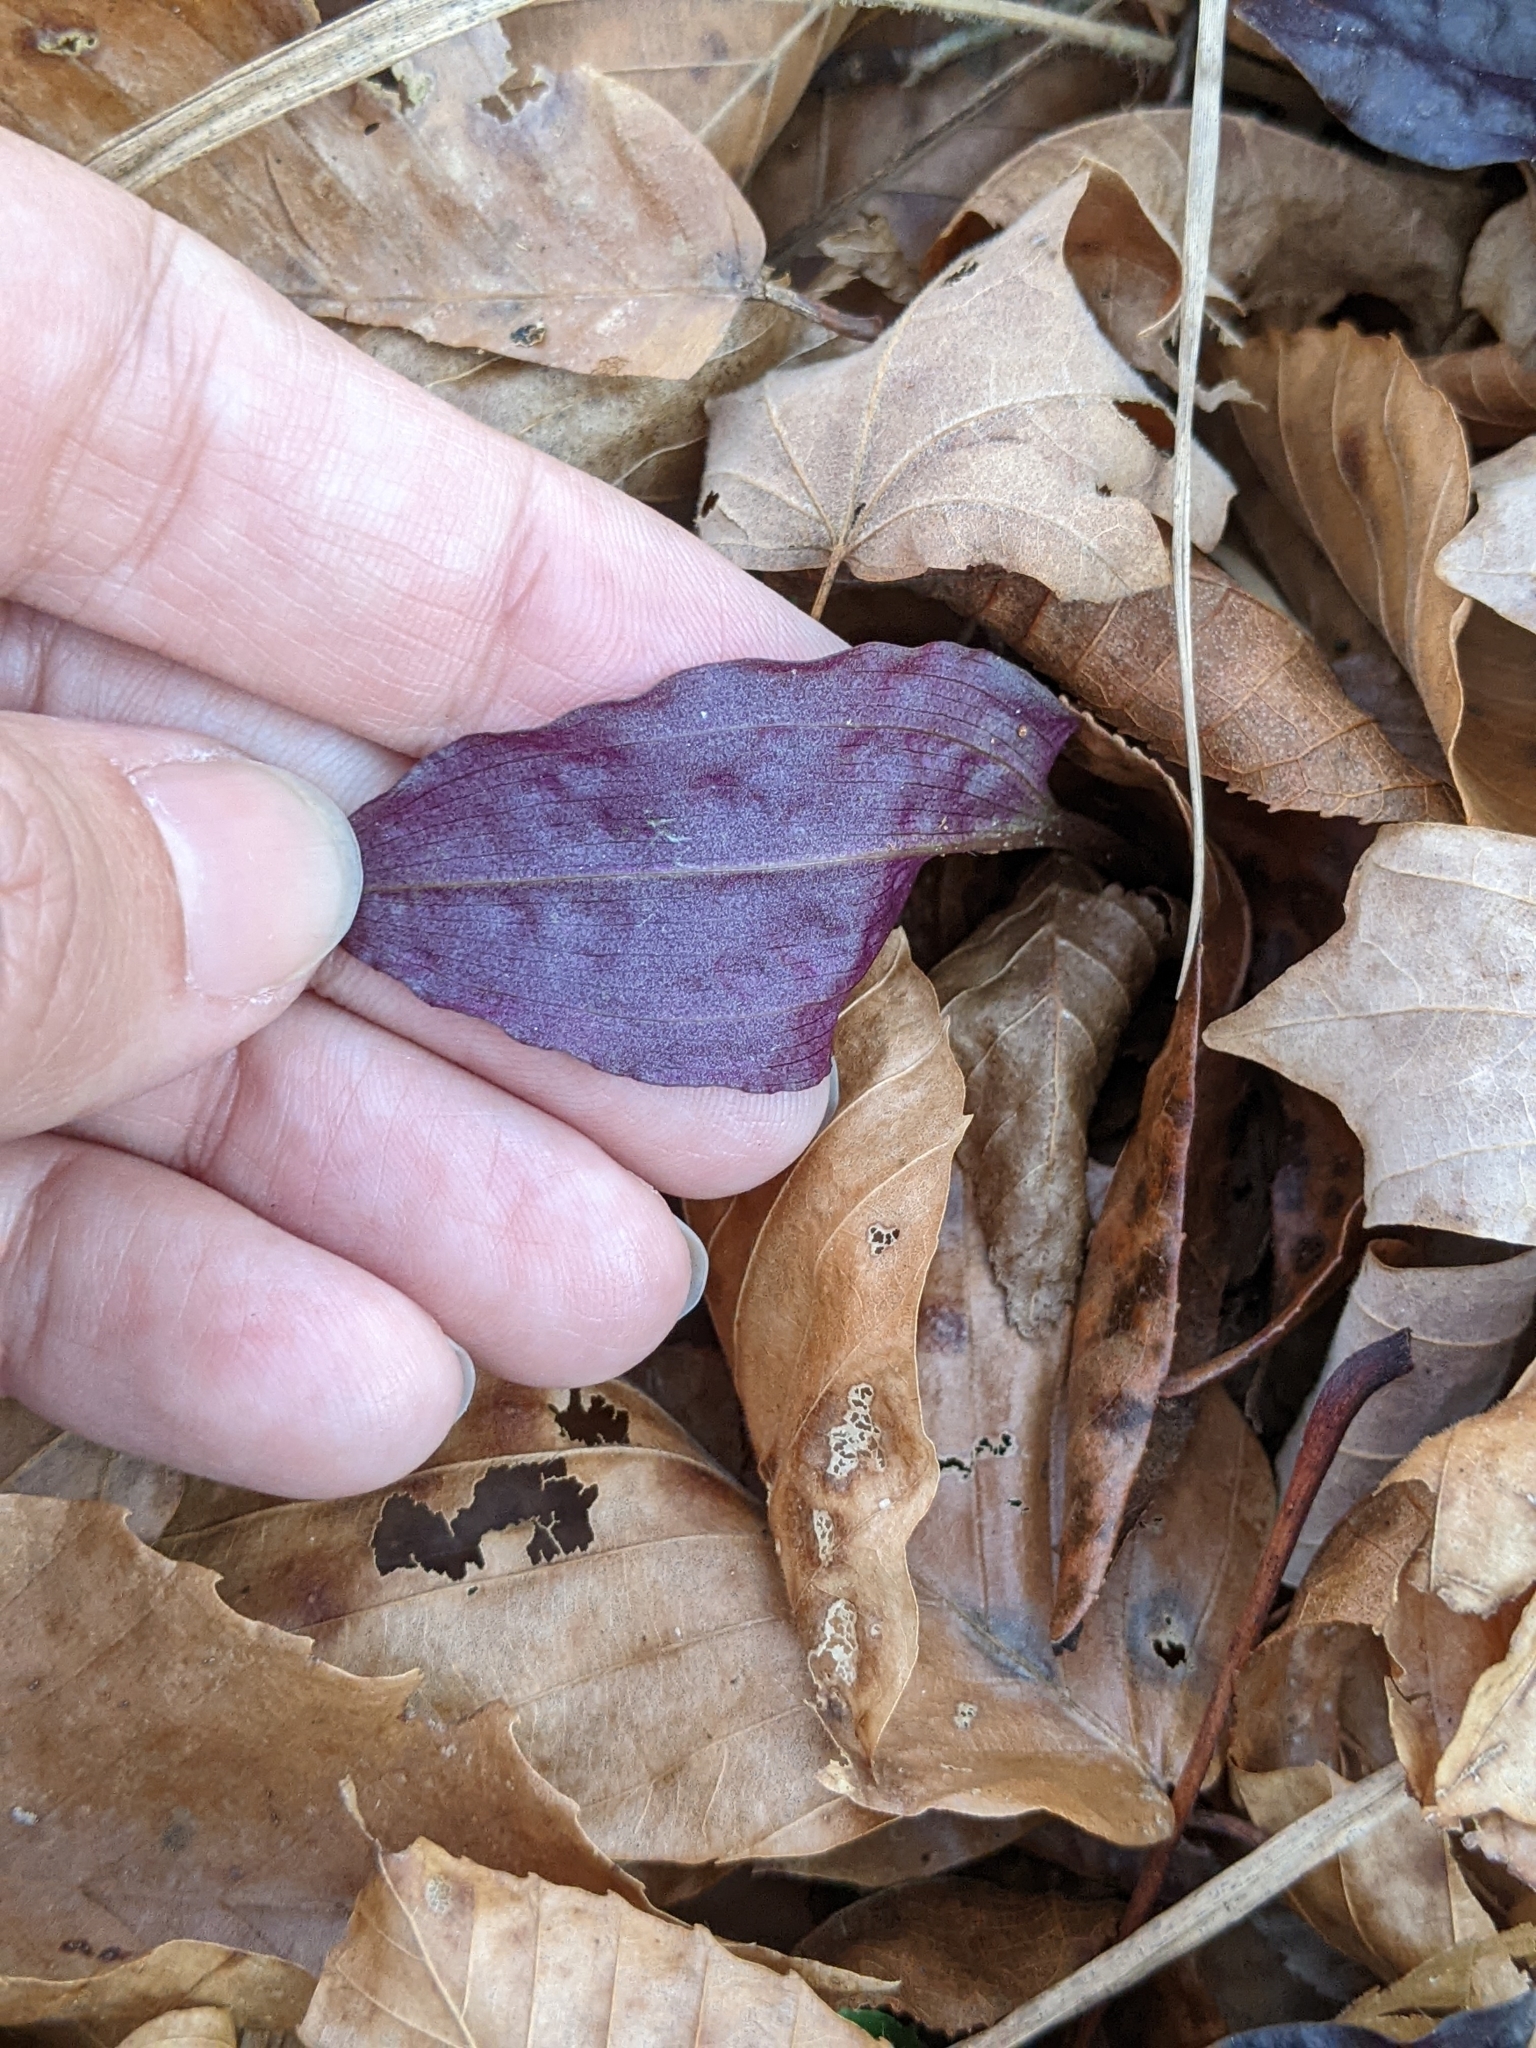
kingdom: Plantae
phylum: Tracheophyta
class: Liliopsida
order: Asparagales
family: Orchidaceae
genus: Tipularia
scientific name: Tipularia discolor
